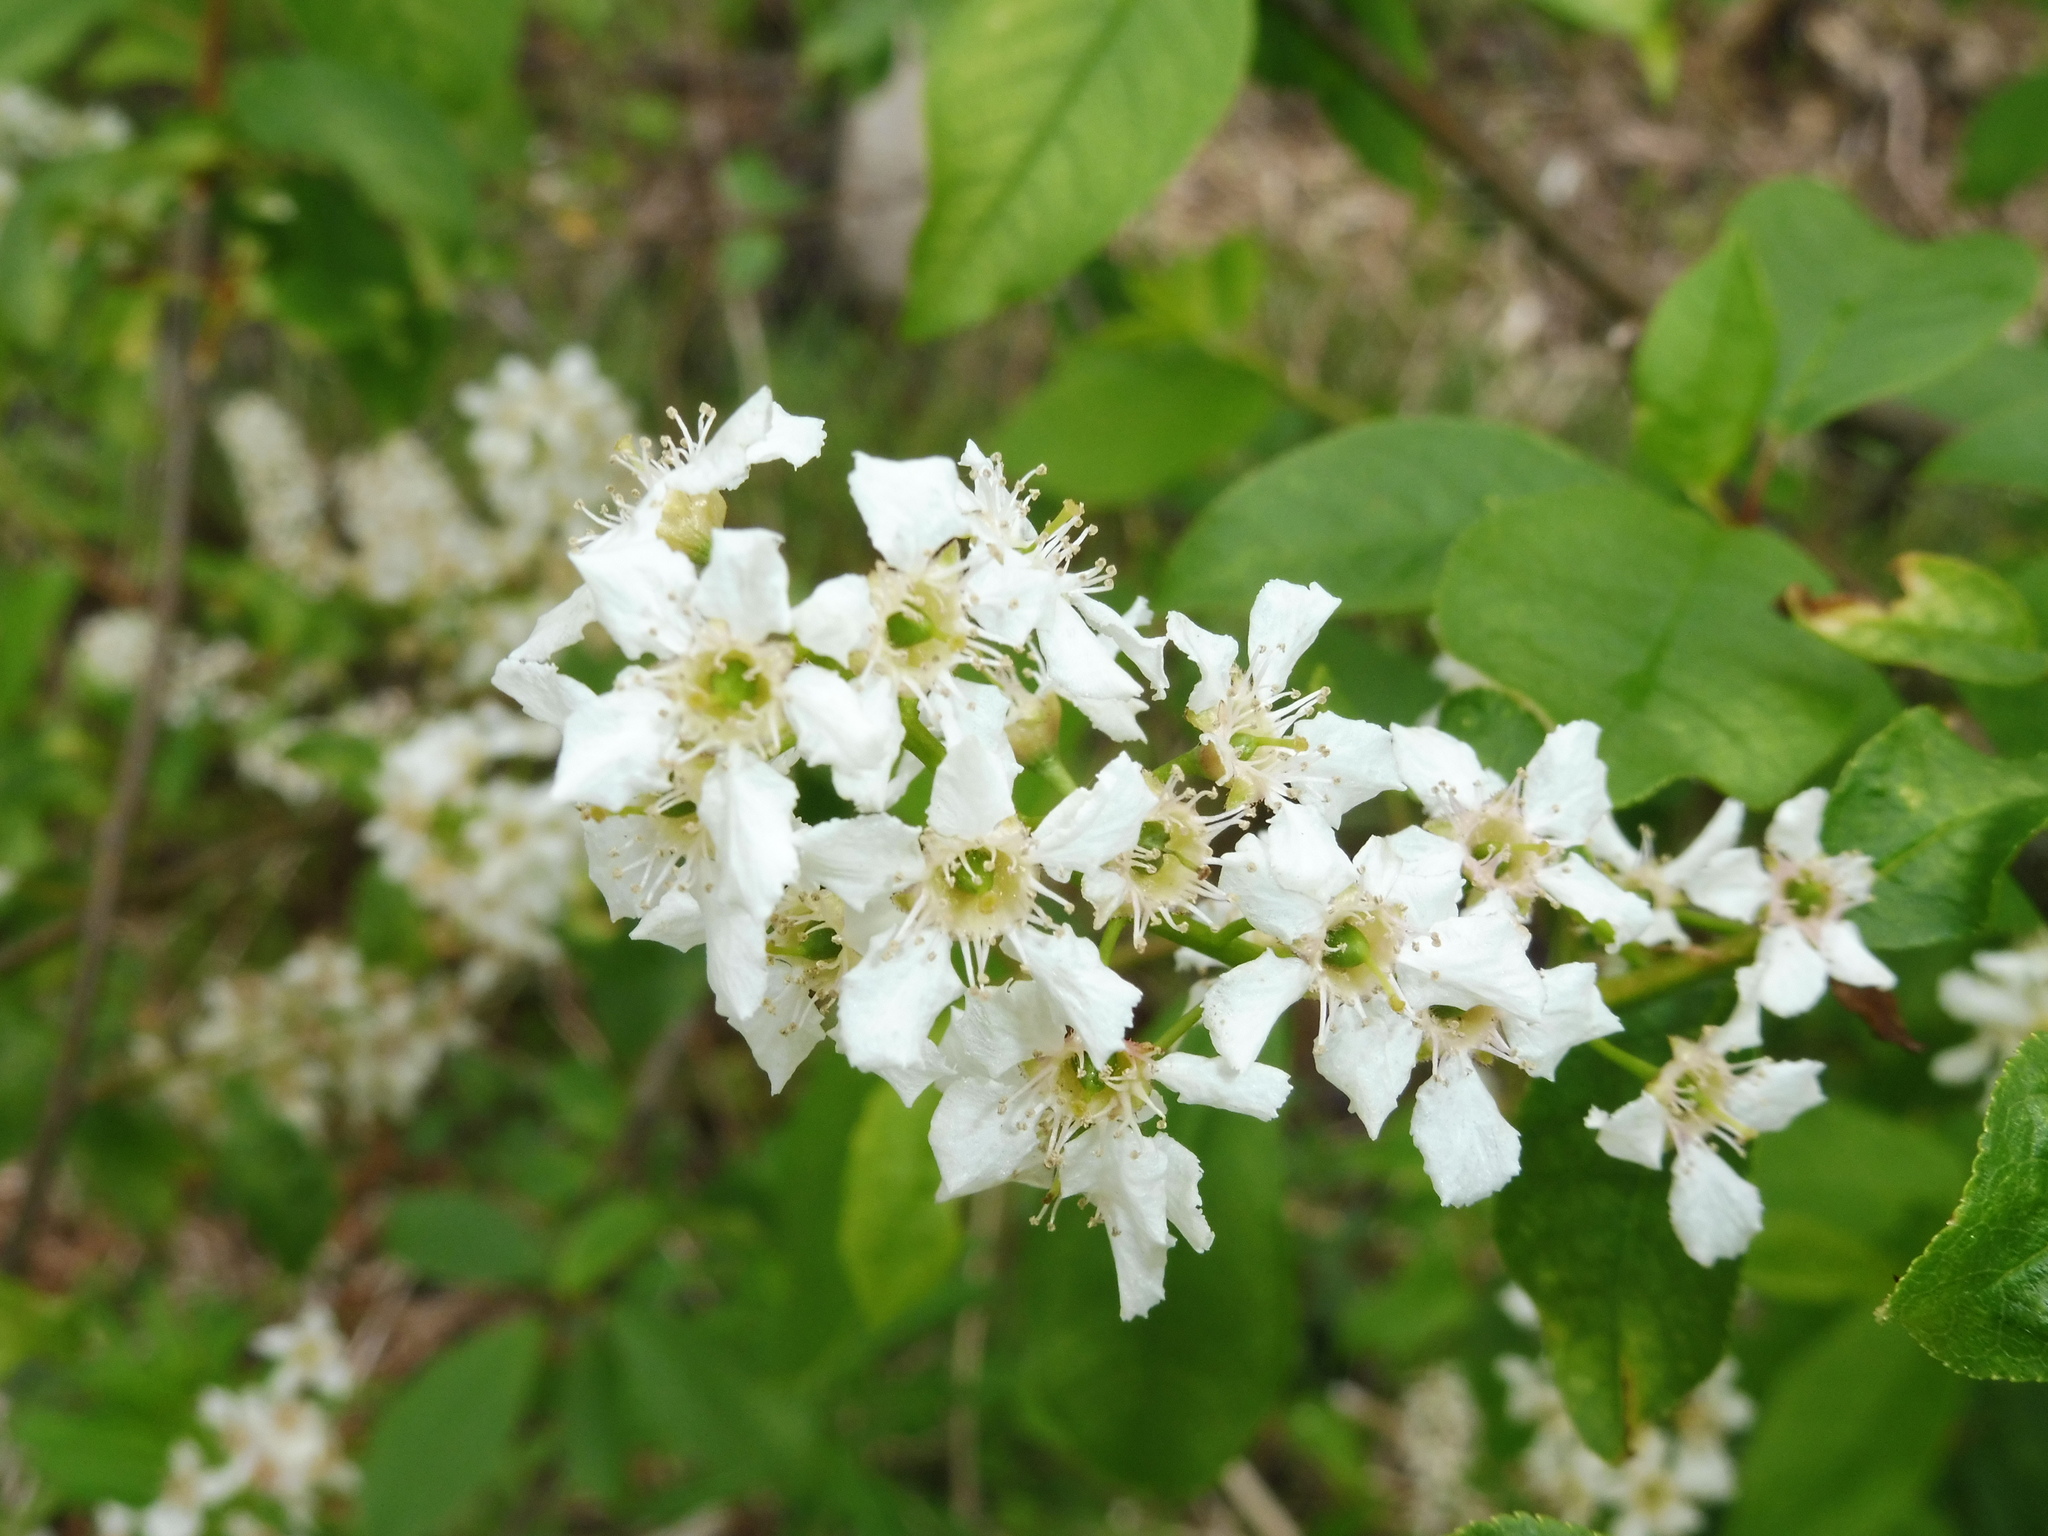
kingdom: Plantae
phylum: Tracheophyta
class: Magnoliopsida
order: Rosales
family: Rosaceae
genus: Prunus
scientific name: Prunus padus
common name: Bird cherry
